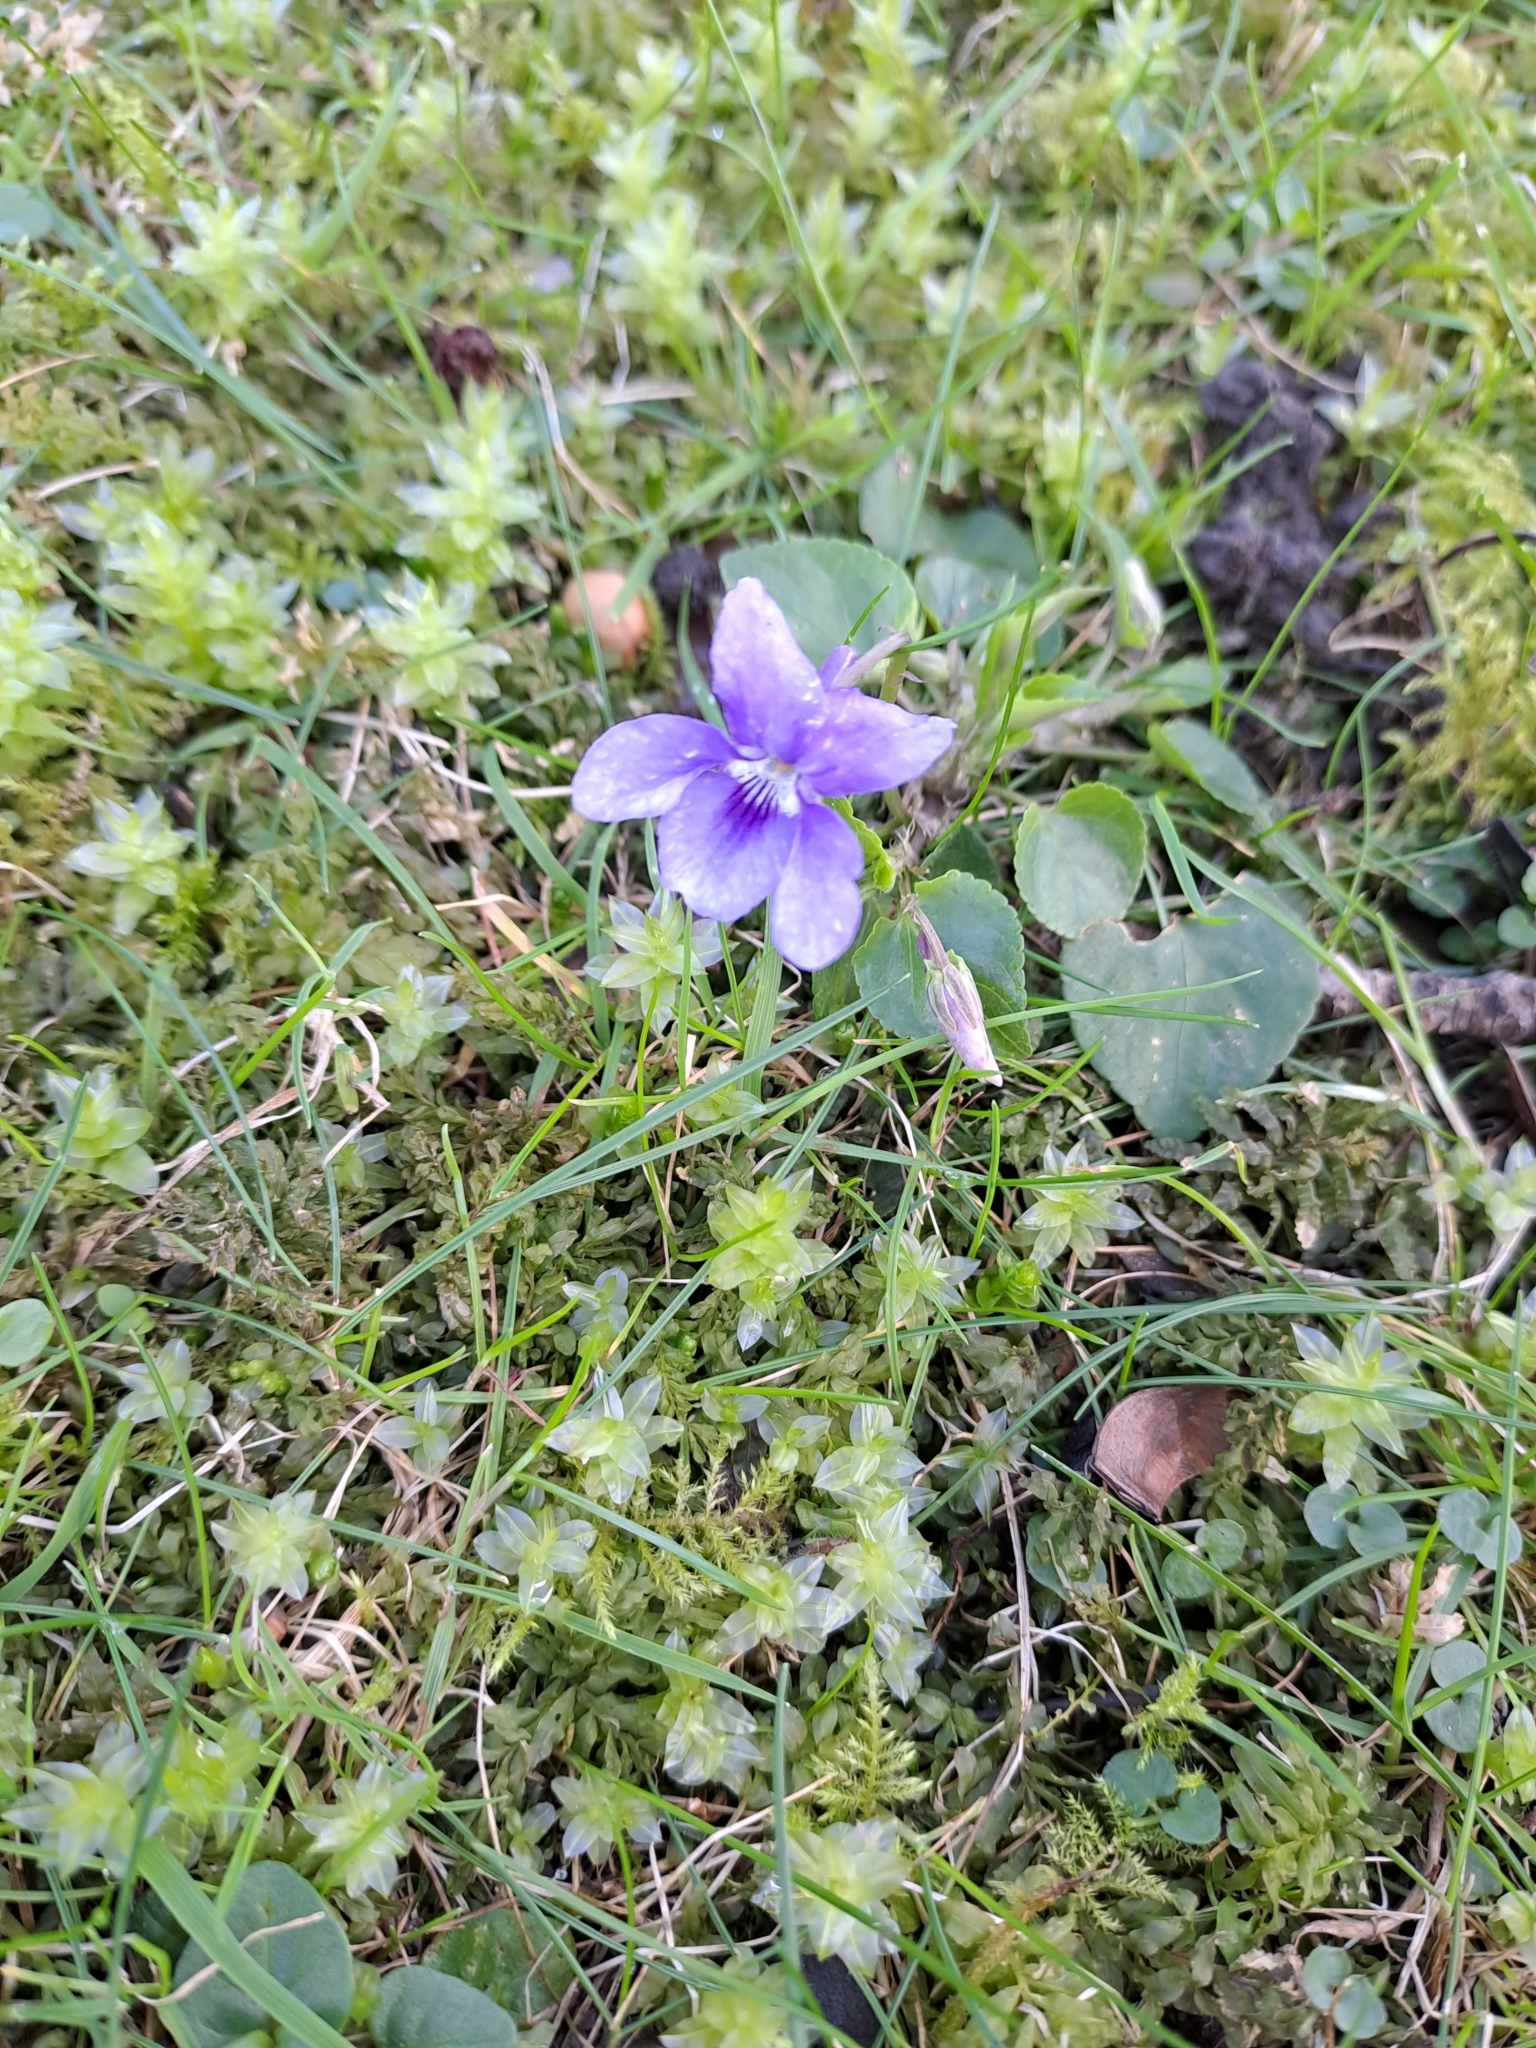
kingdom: Plantae
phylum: Tracheophyta
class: Magnoliopsida
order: Malpighiales
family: Violaceae
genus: Viola
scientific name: Viola reichenbachiana
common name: Early dog-violet
